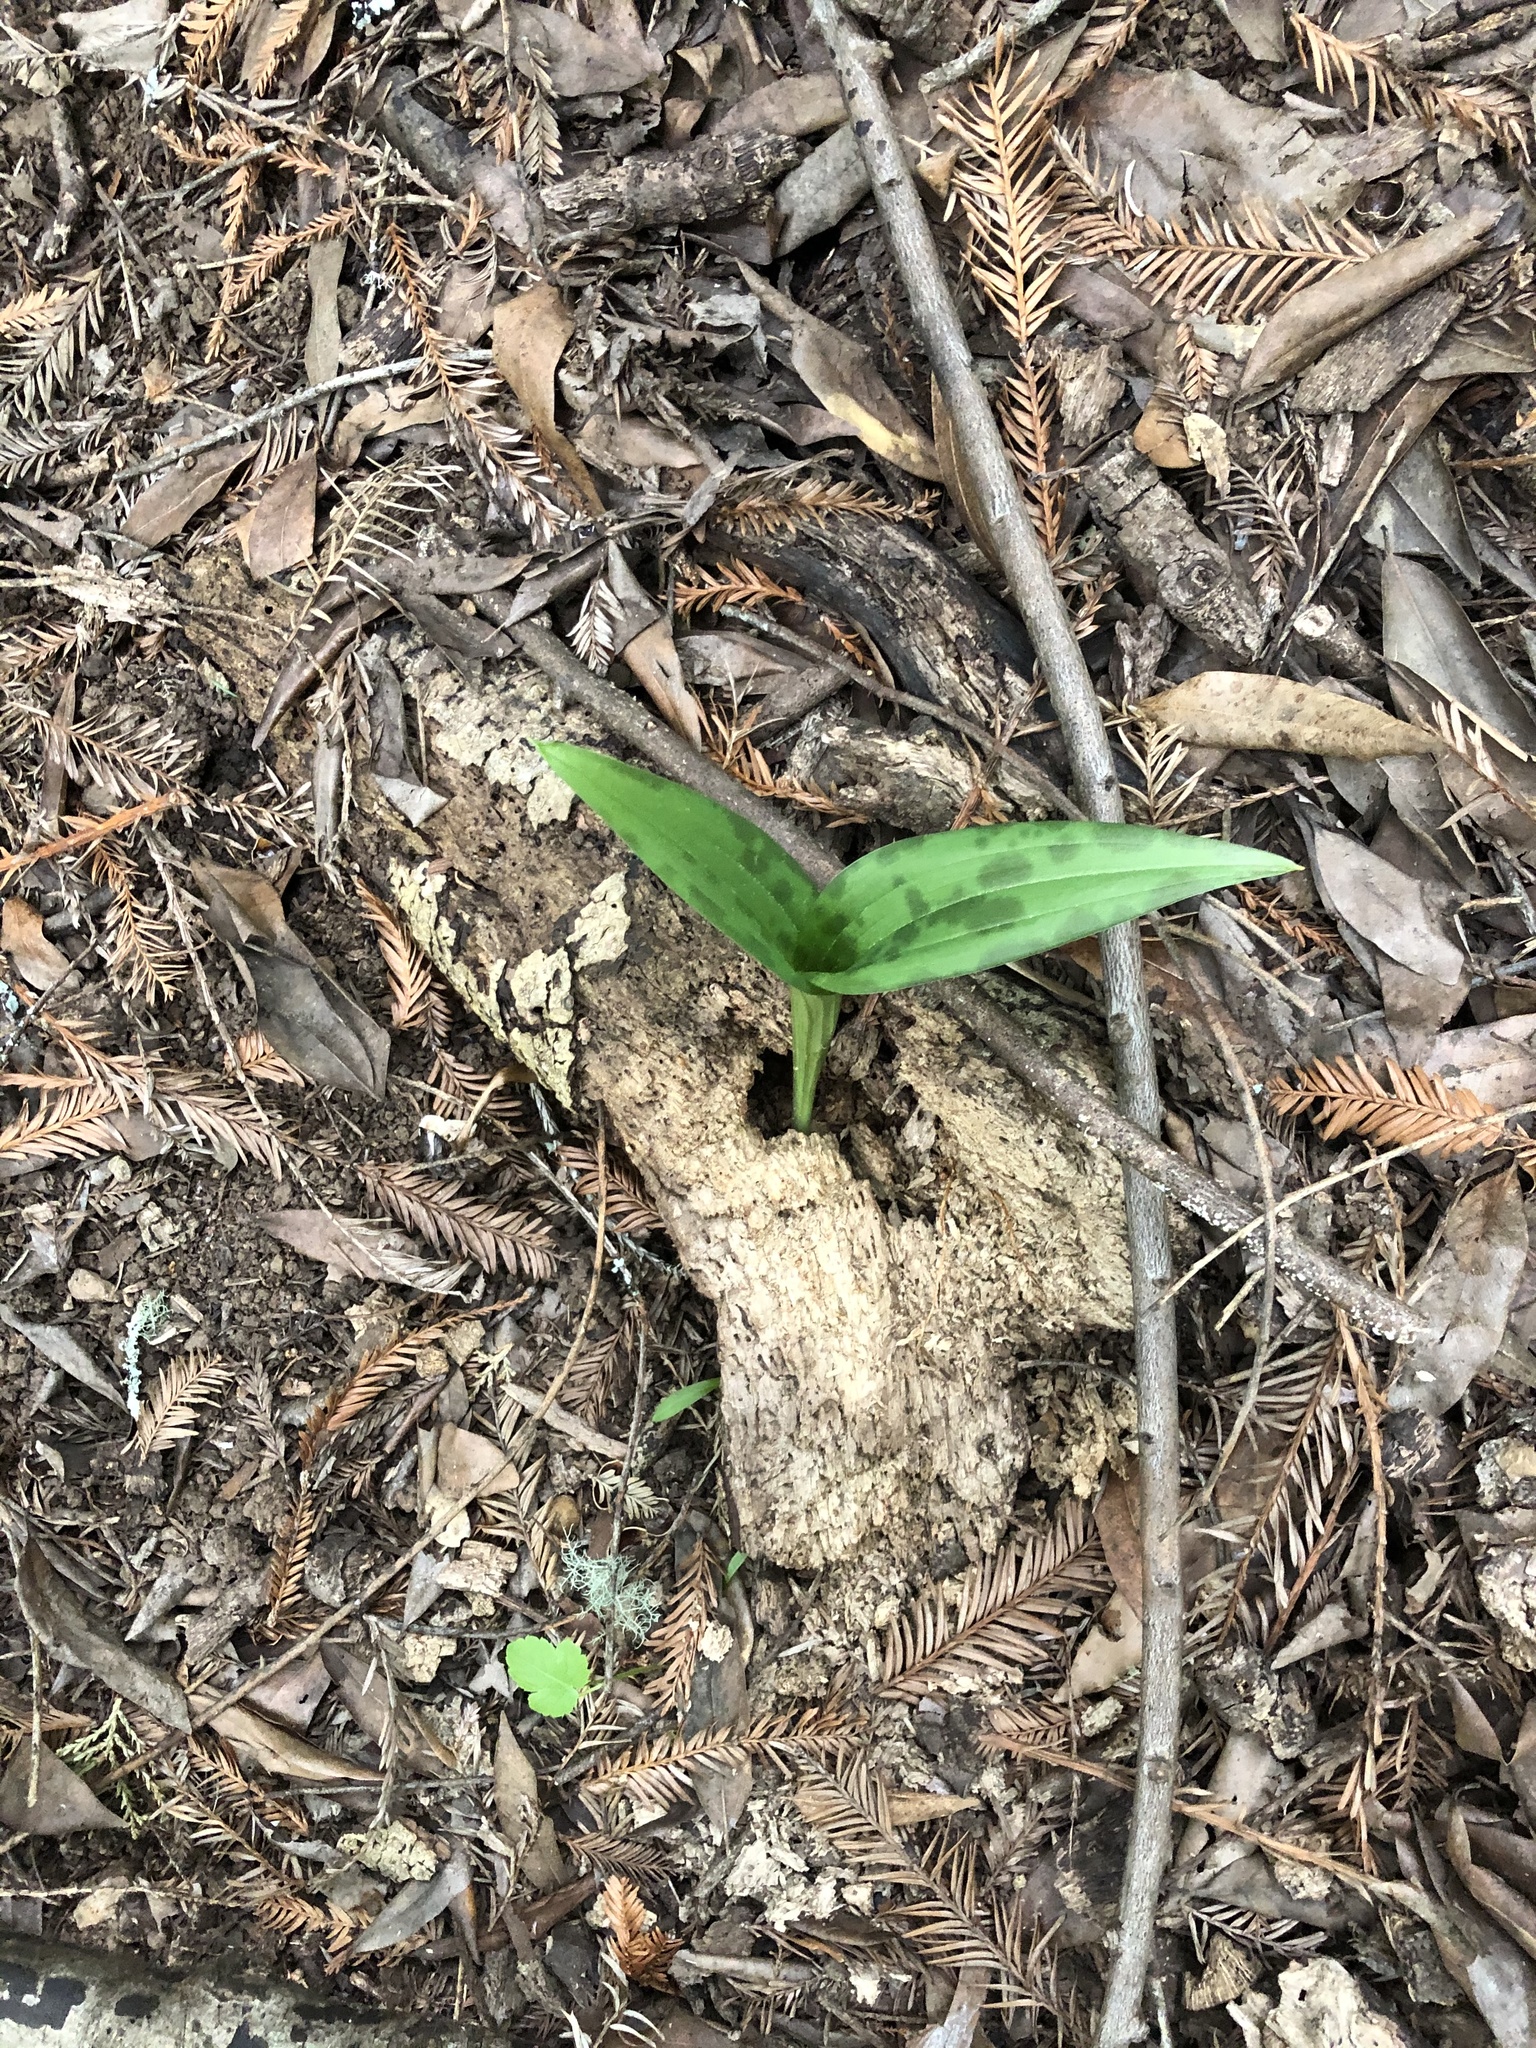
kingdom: Plantae
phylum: Tracheophyta
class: Liliopsida
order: Liliales
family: Liliaceae
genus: Scoliopus
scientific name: Scoliopus bigelovii
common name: Foetid adder's-tongue
